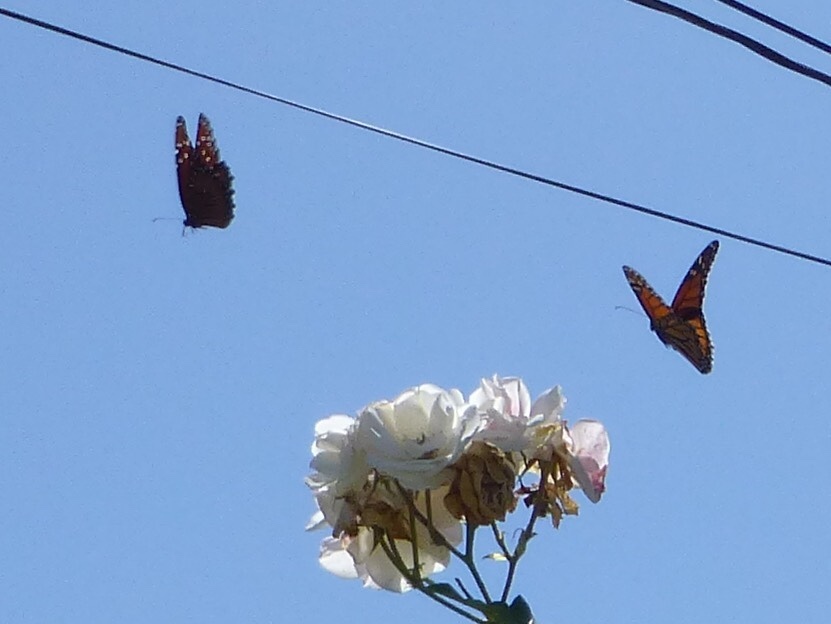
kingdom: Animalia
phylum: Arthropoda
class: Insecta
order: Lepidoptera
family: Nymphalidae
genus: Danaus
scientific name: Danaus gilippus
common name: Queen
